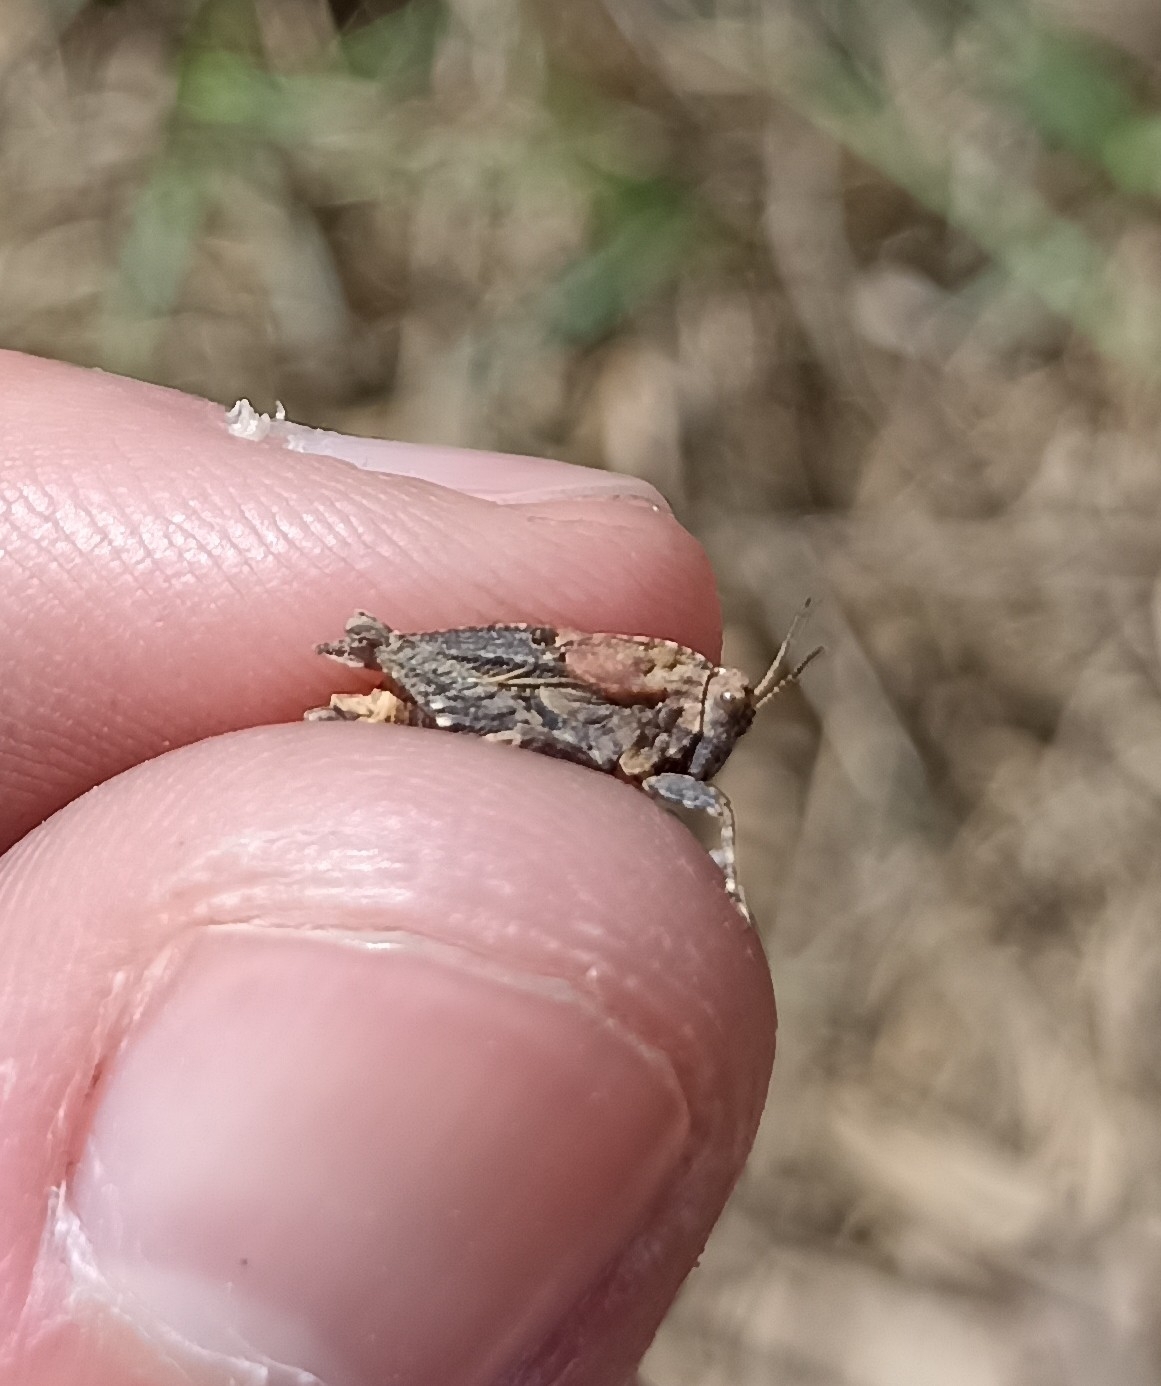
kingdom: Animalia
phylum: Arthropoda
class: Insecta
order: Orthoptera
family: Tetrigidae
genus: Tetrix
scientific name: Tetrix depressa
